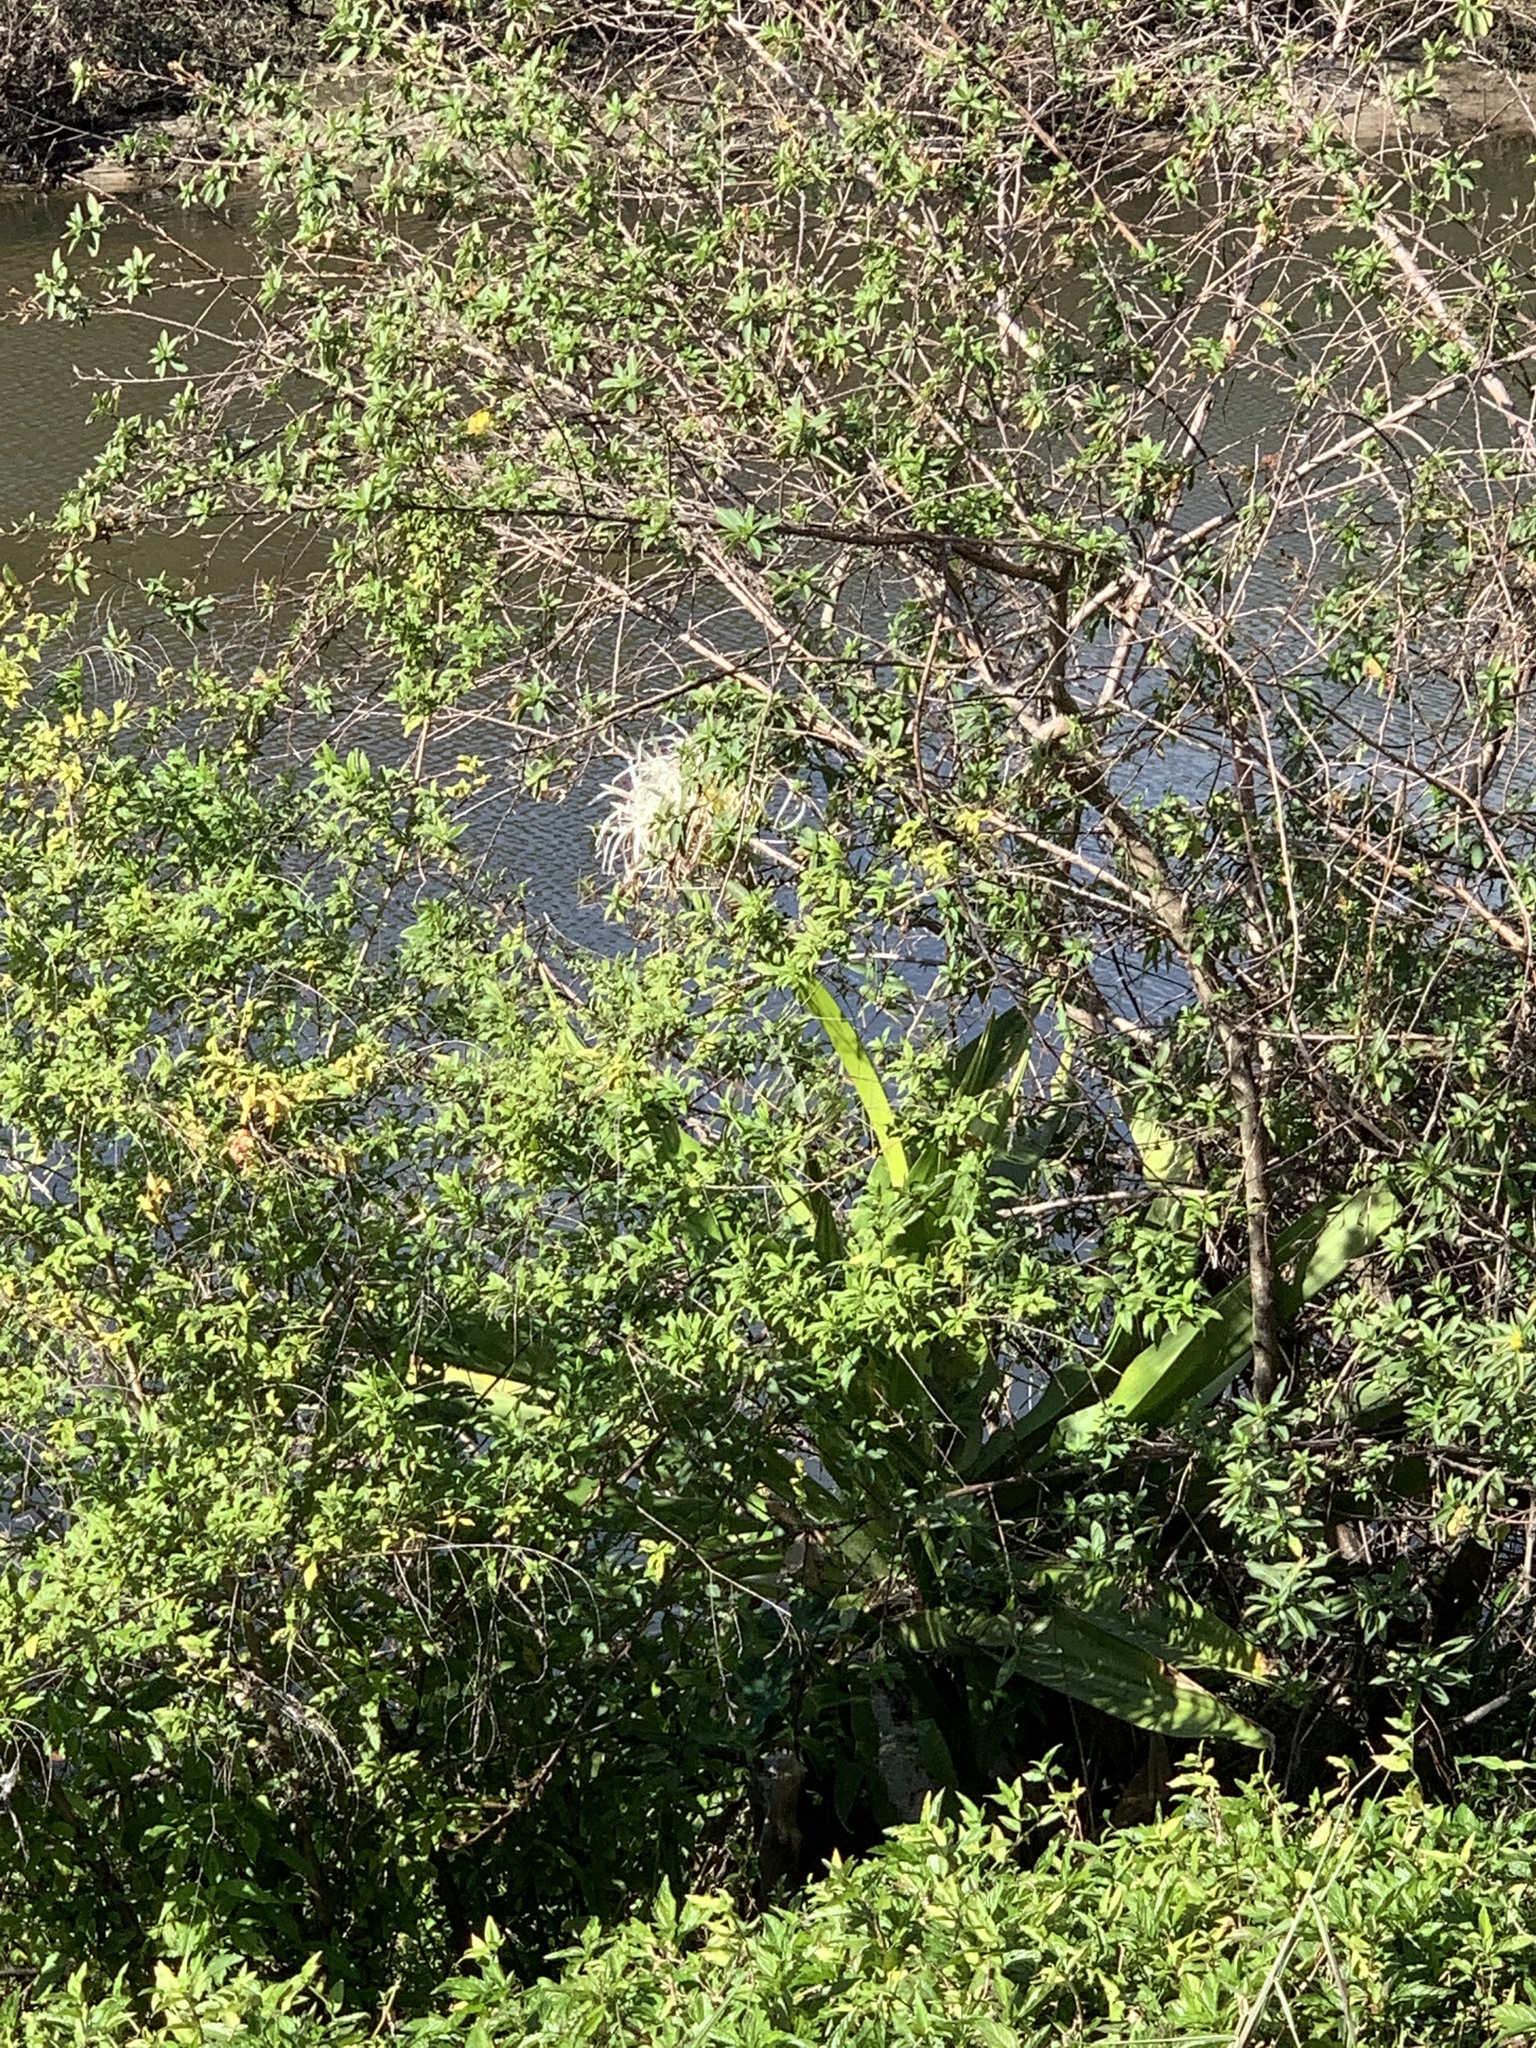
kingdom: Plantae
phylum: Tracheophyta
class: Liliopsida
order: Asparagales
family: Amaryllidaceae
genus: Crinum
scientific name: Crinum asiaticum
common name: Poisonbulb
